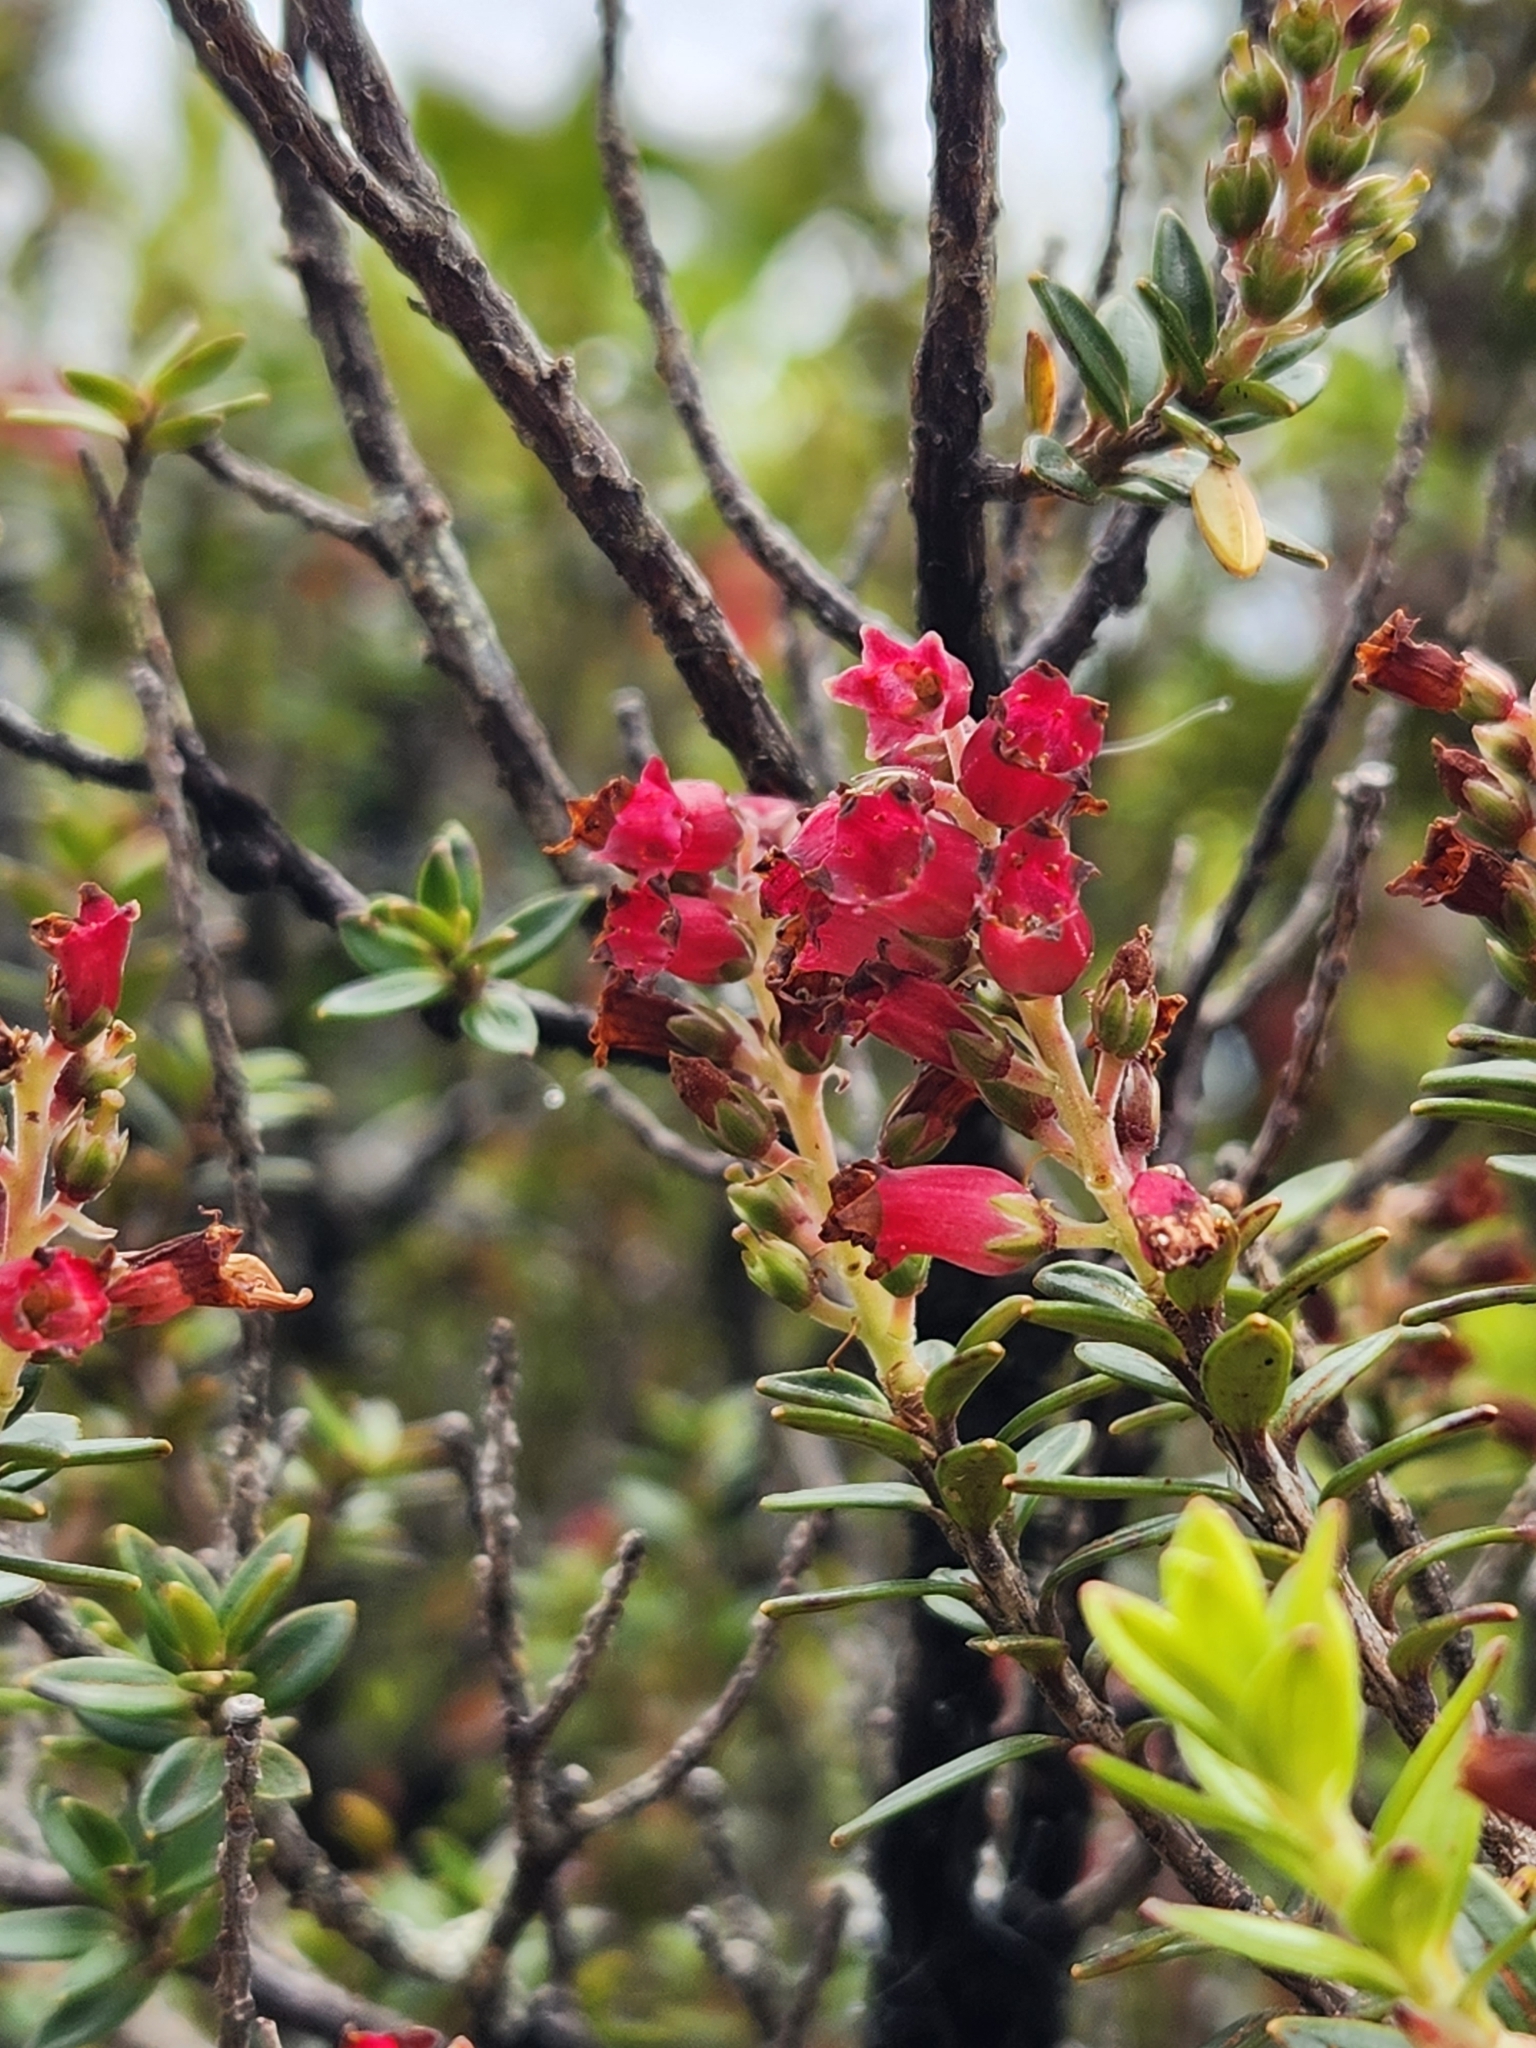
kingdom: Plantae
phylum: Tracheophyta
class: Magnoliopsida
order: Ericales
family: Ericaceae
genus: Archeria
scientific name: Archeria traversii
